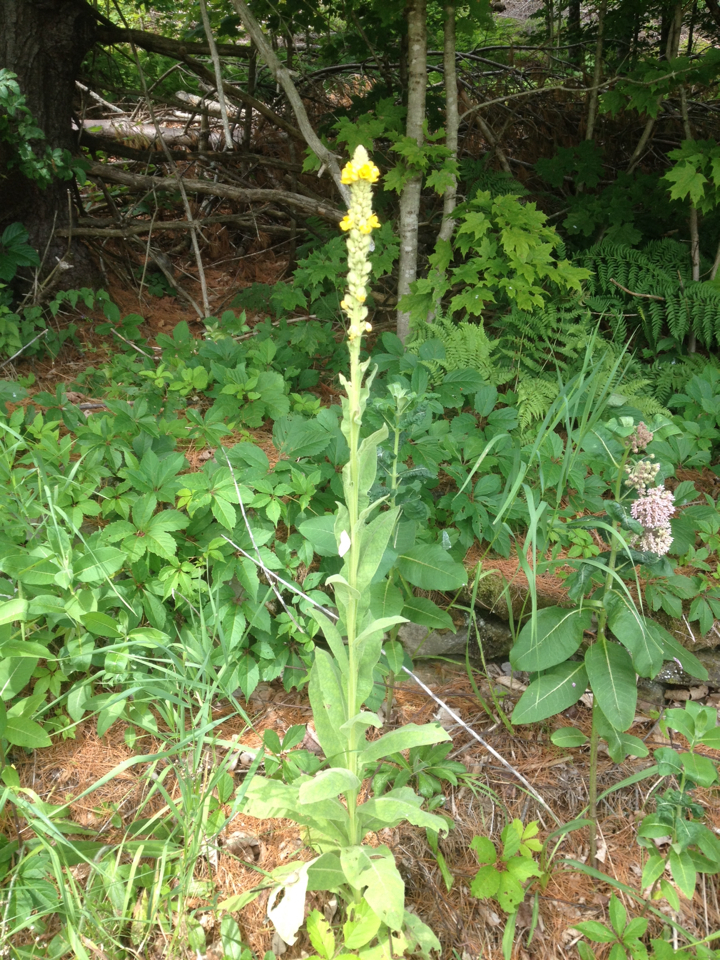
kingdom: Plantae
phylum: Tracheophyta
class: Magnoliopsida
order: Lamiales
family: Scrophulariaceae
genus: Verbascum
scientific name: Verbascum thapsus
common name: Common mullein
